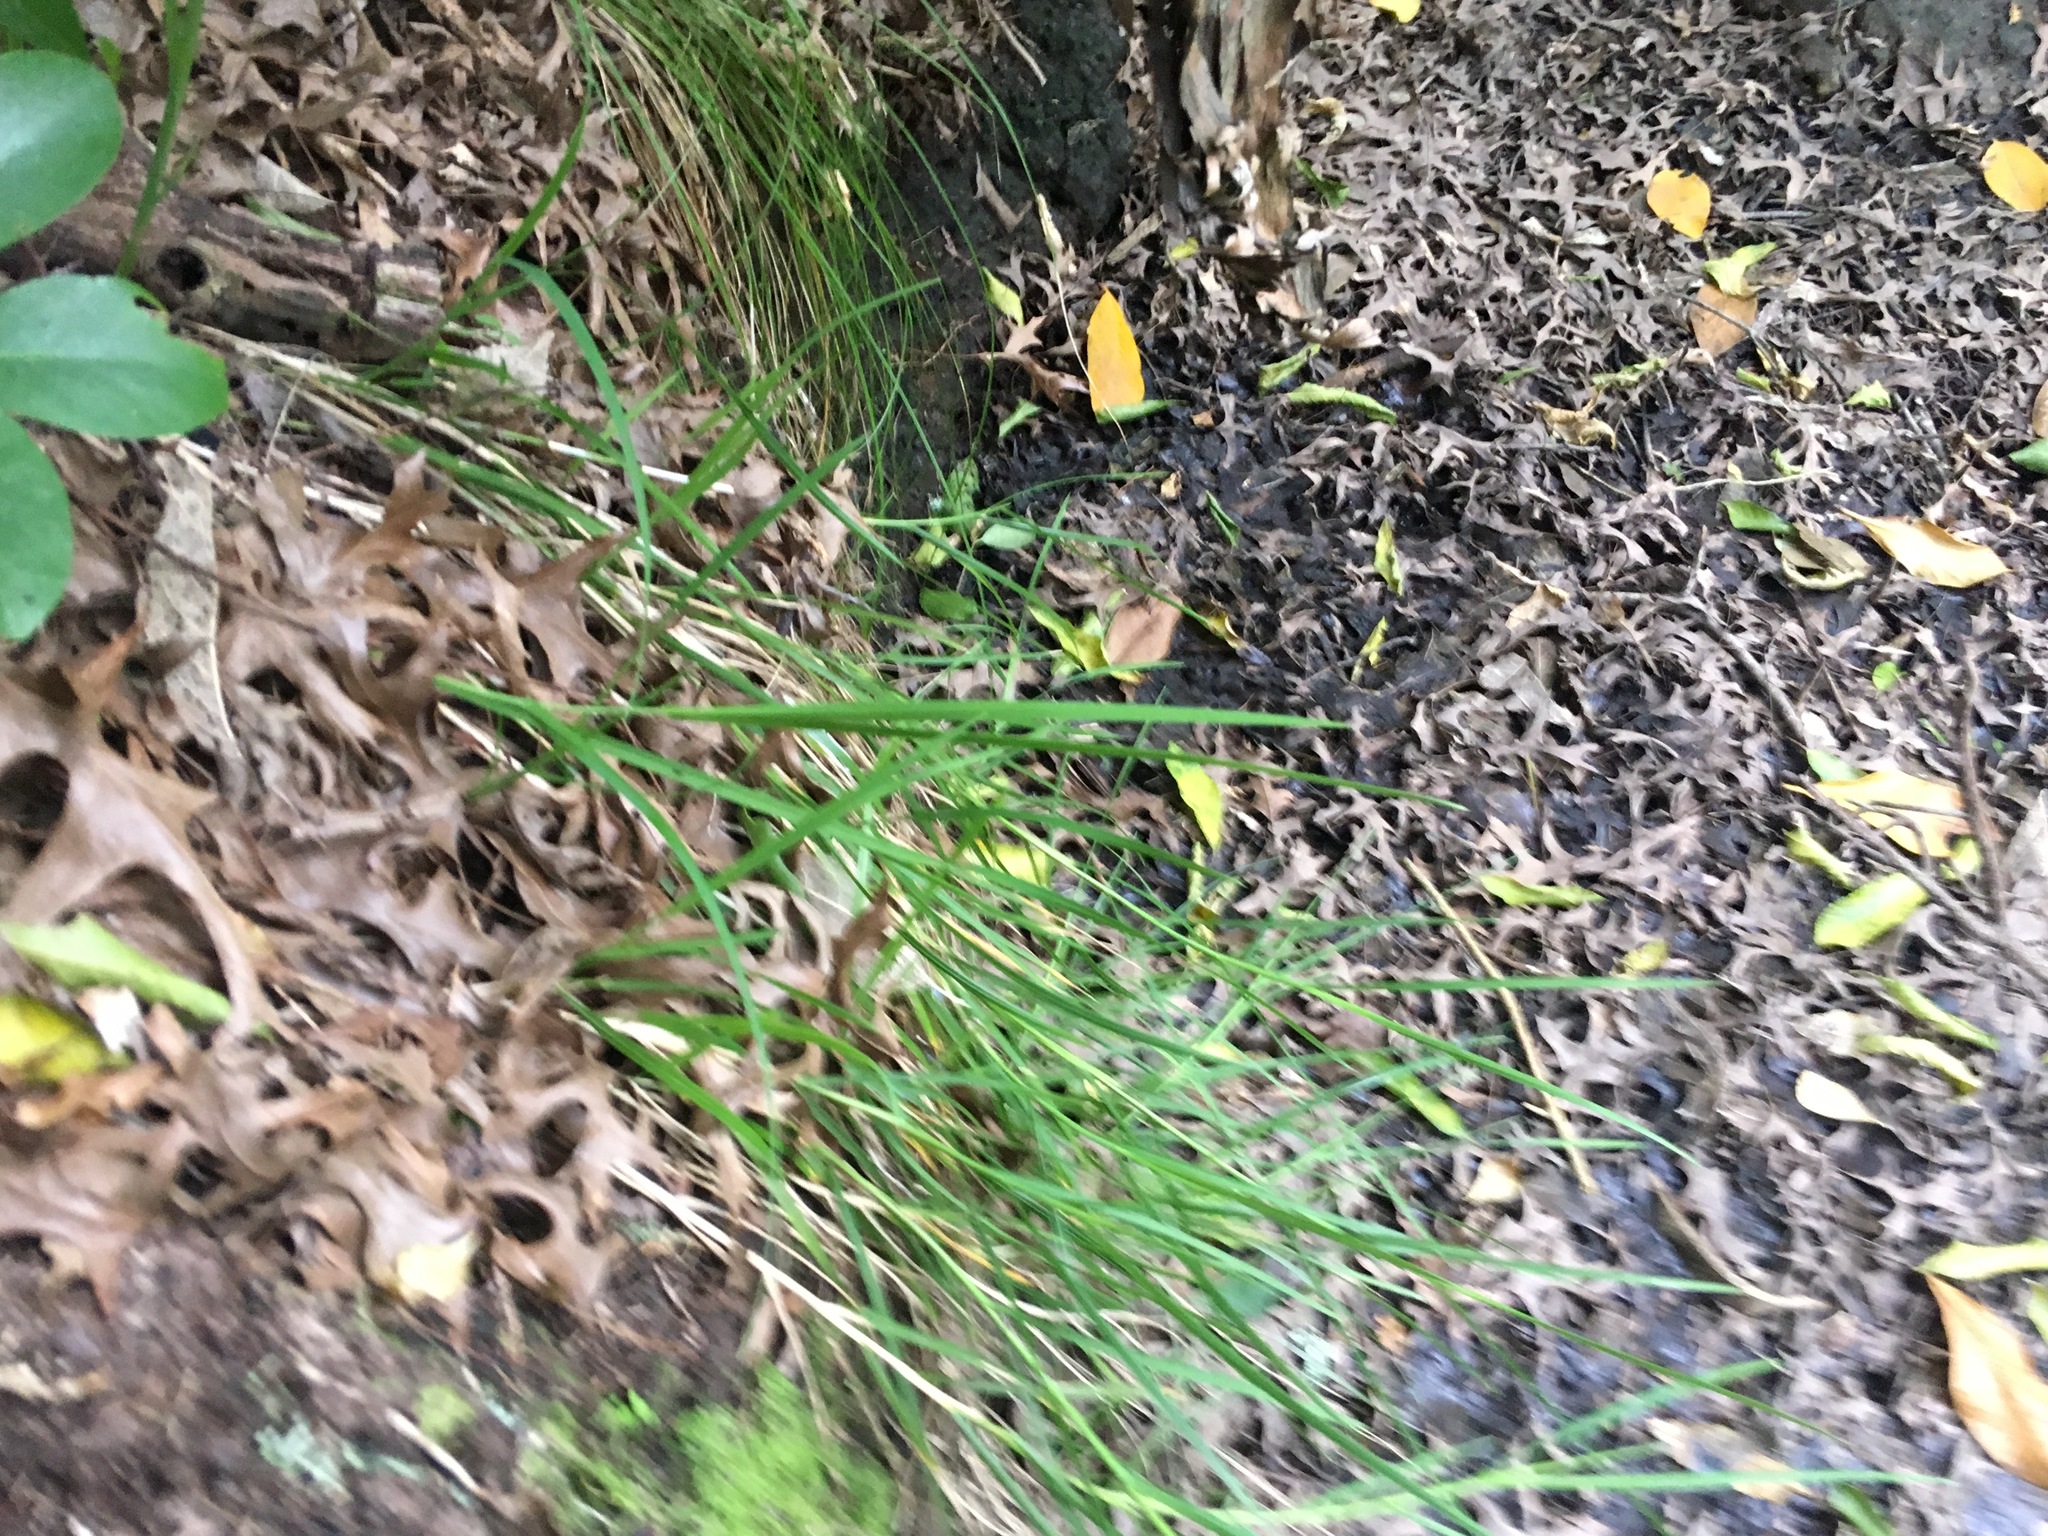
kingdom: Plantae
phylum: Tracheophyta
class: Magnoliopsida
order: Cucurbitales
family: Corynocarpaceae
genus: Corynocarpus
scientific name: Corynocarpus laevigatus
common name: New zealand laurel
